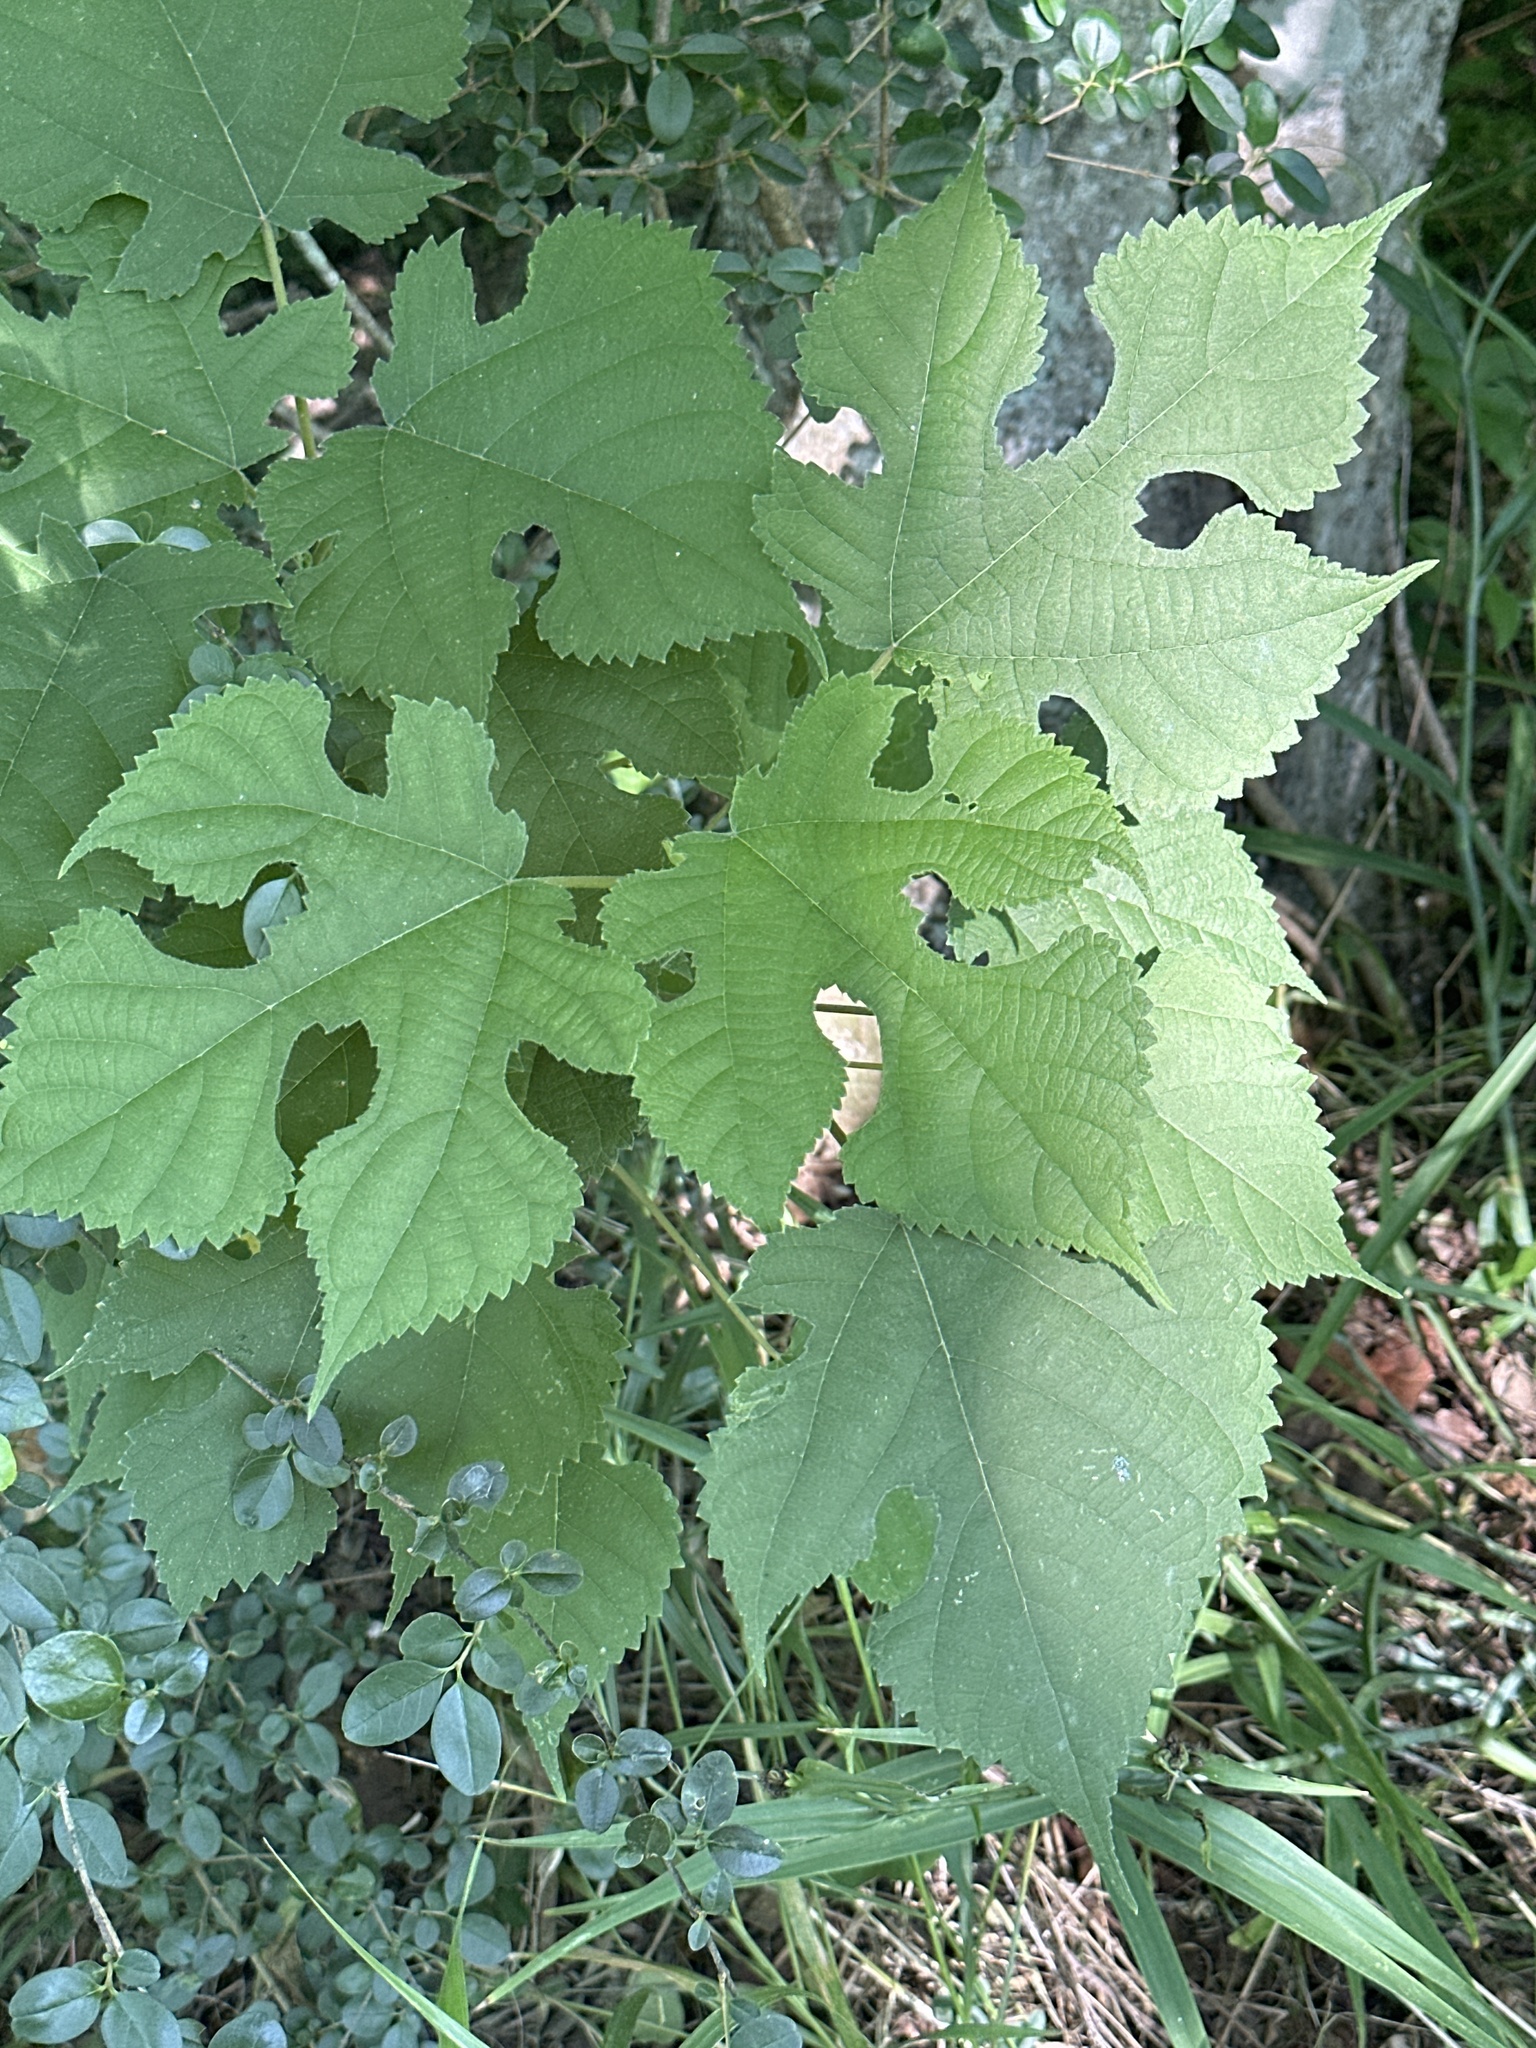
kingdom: Plantae
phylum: Tracheophyta
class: Magnoliopsida
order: Rosales
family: Moraceae
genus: Broussonetia
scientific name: Broussonetia papyrifera
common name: Paper mulberry
